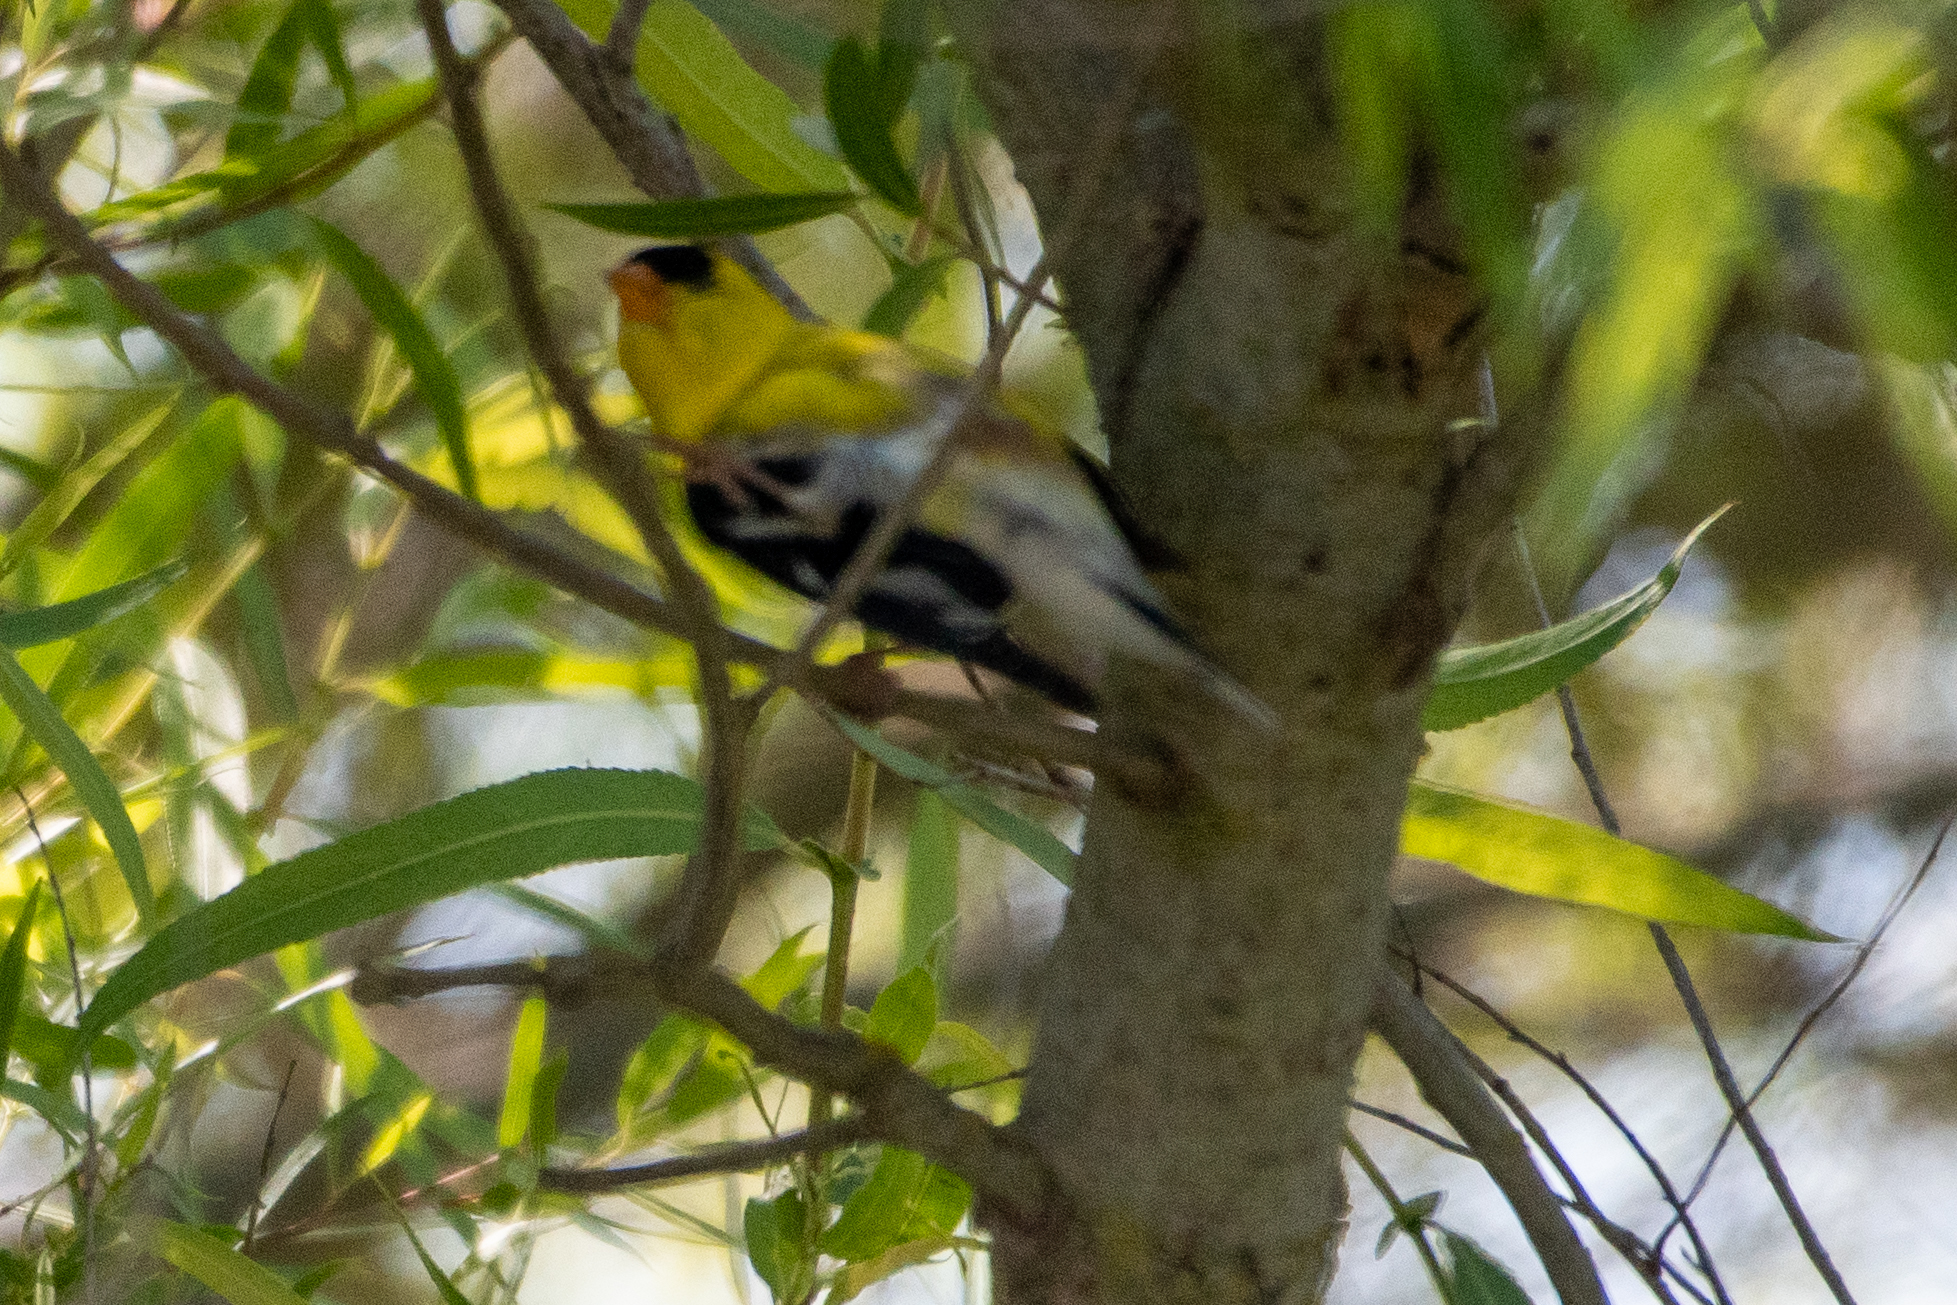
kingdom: Animalia
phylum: Chordata
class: Aves
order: Passeriformes
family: Fringillidae
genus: Spinus
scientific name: Spinus tristis
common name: American goldfinch
